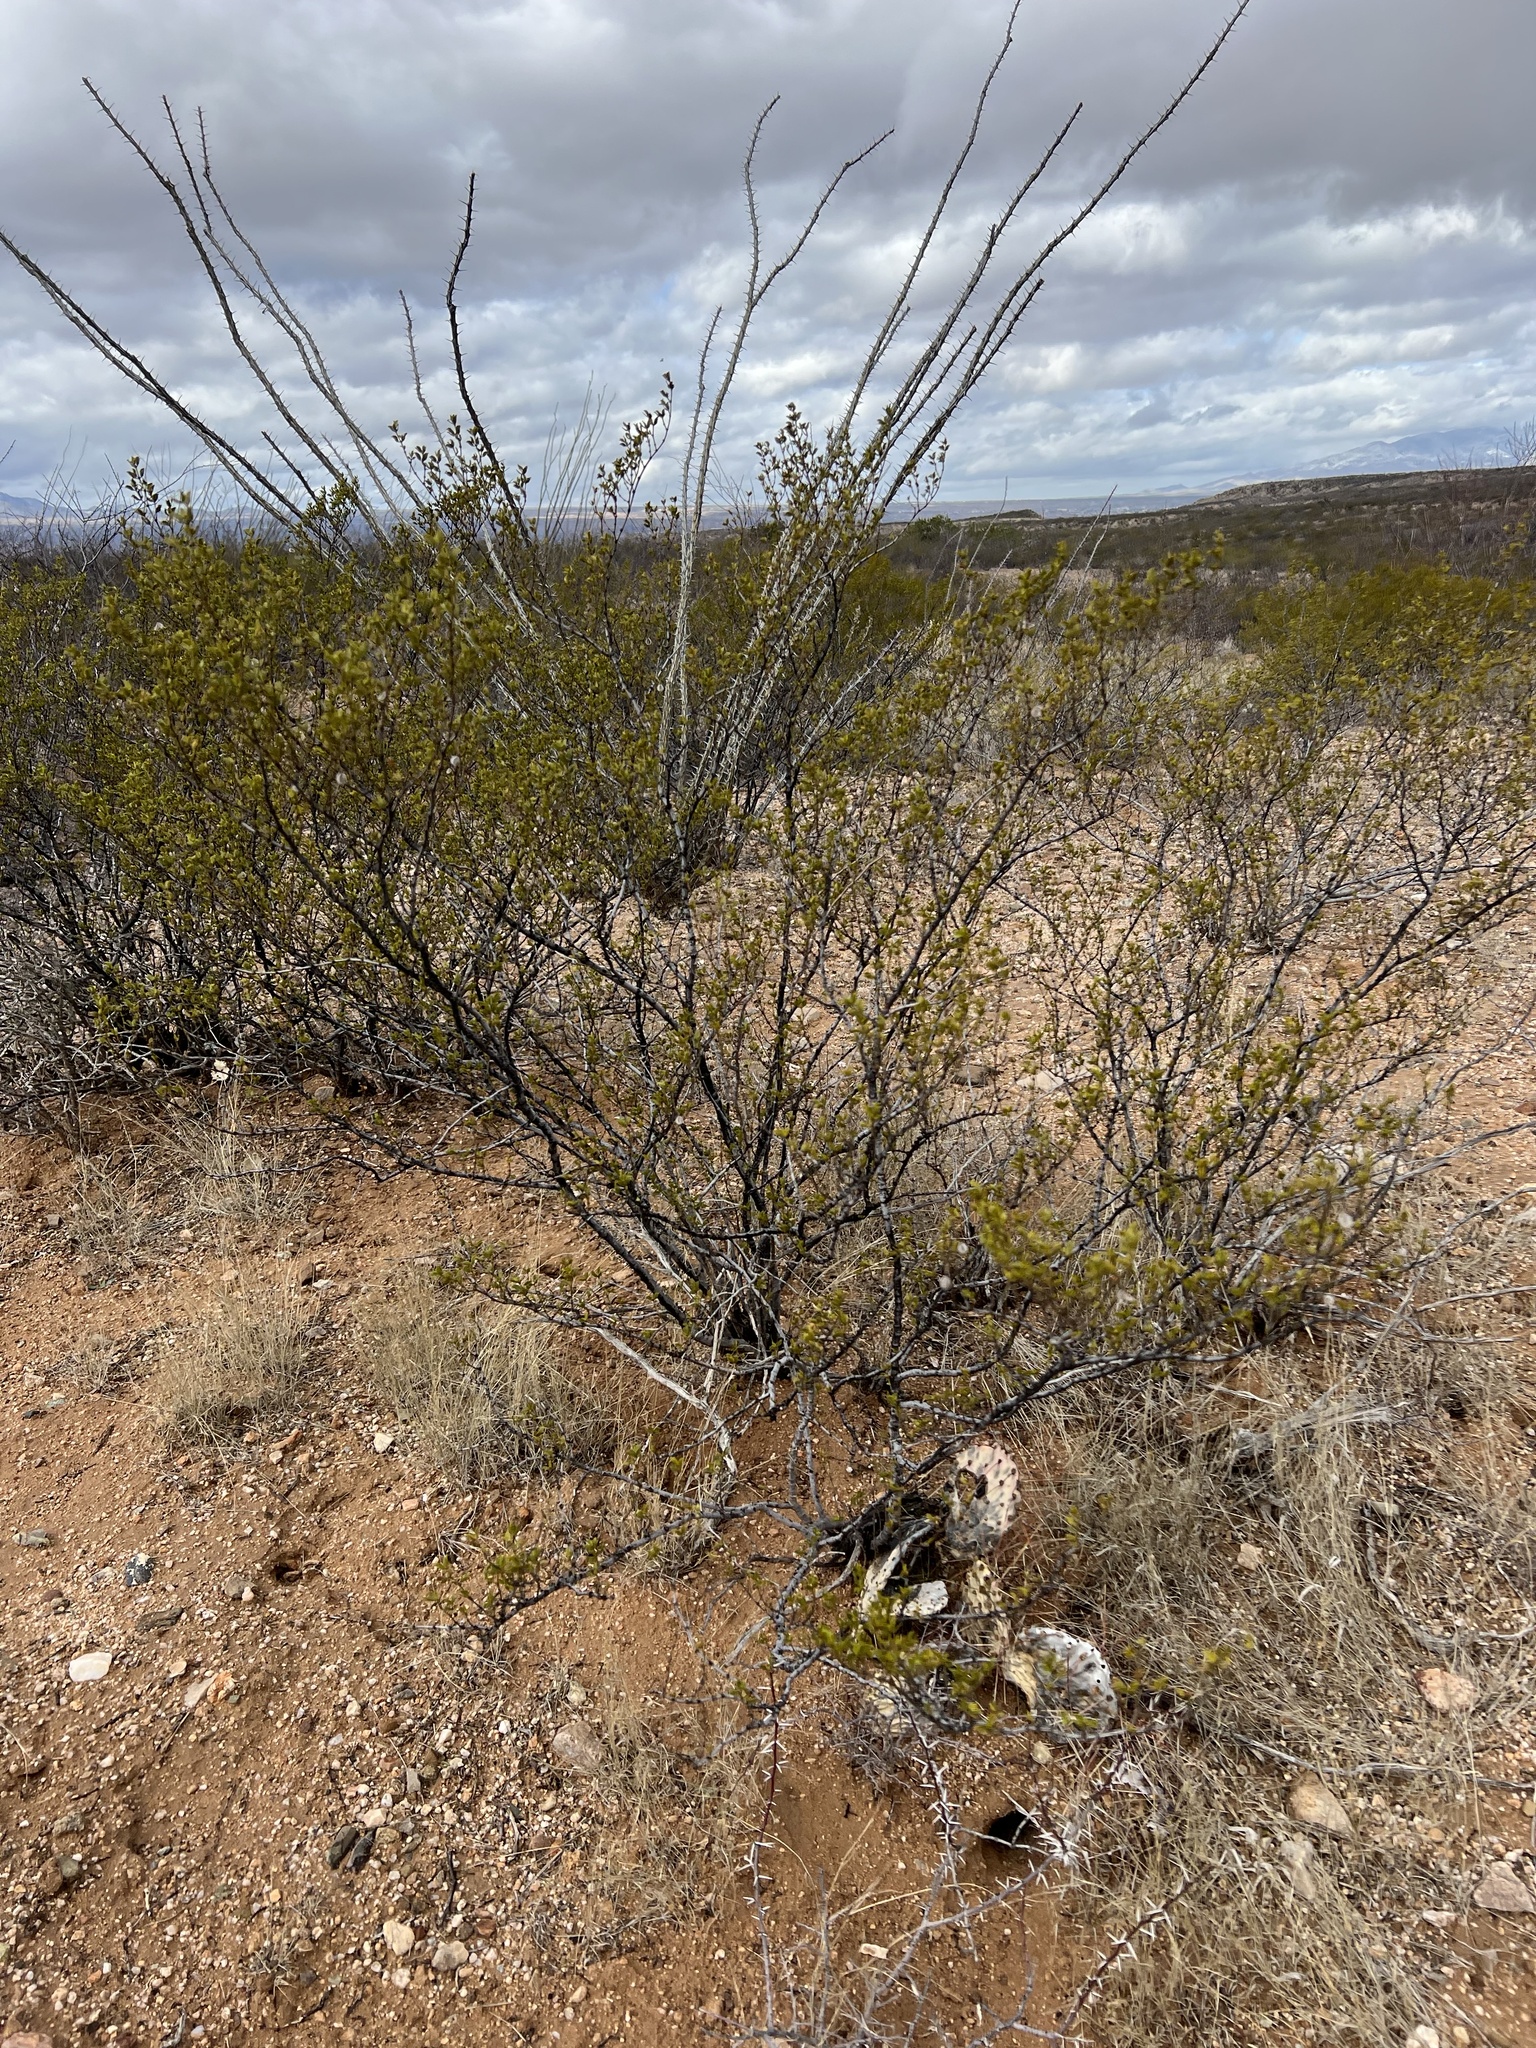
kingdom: Plantae
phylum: Tracheophyta
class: Magnoliopsida
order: Zygophyllales
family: Zygophyllaceae
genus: Larrea
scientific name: Larrea tridentata
